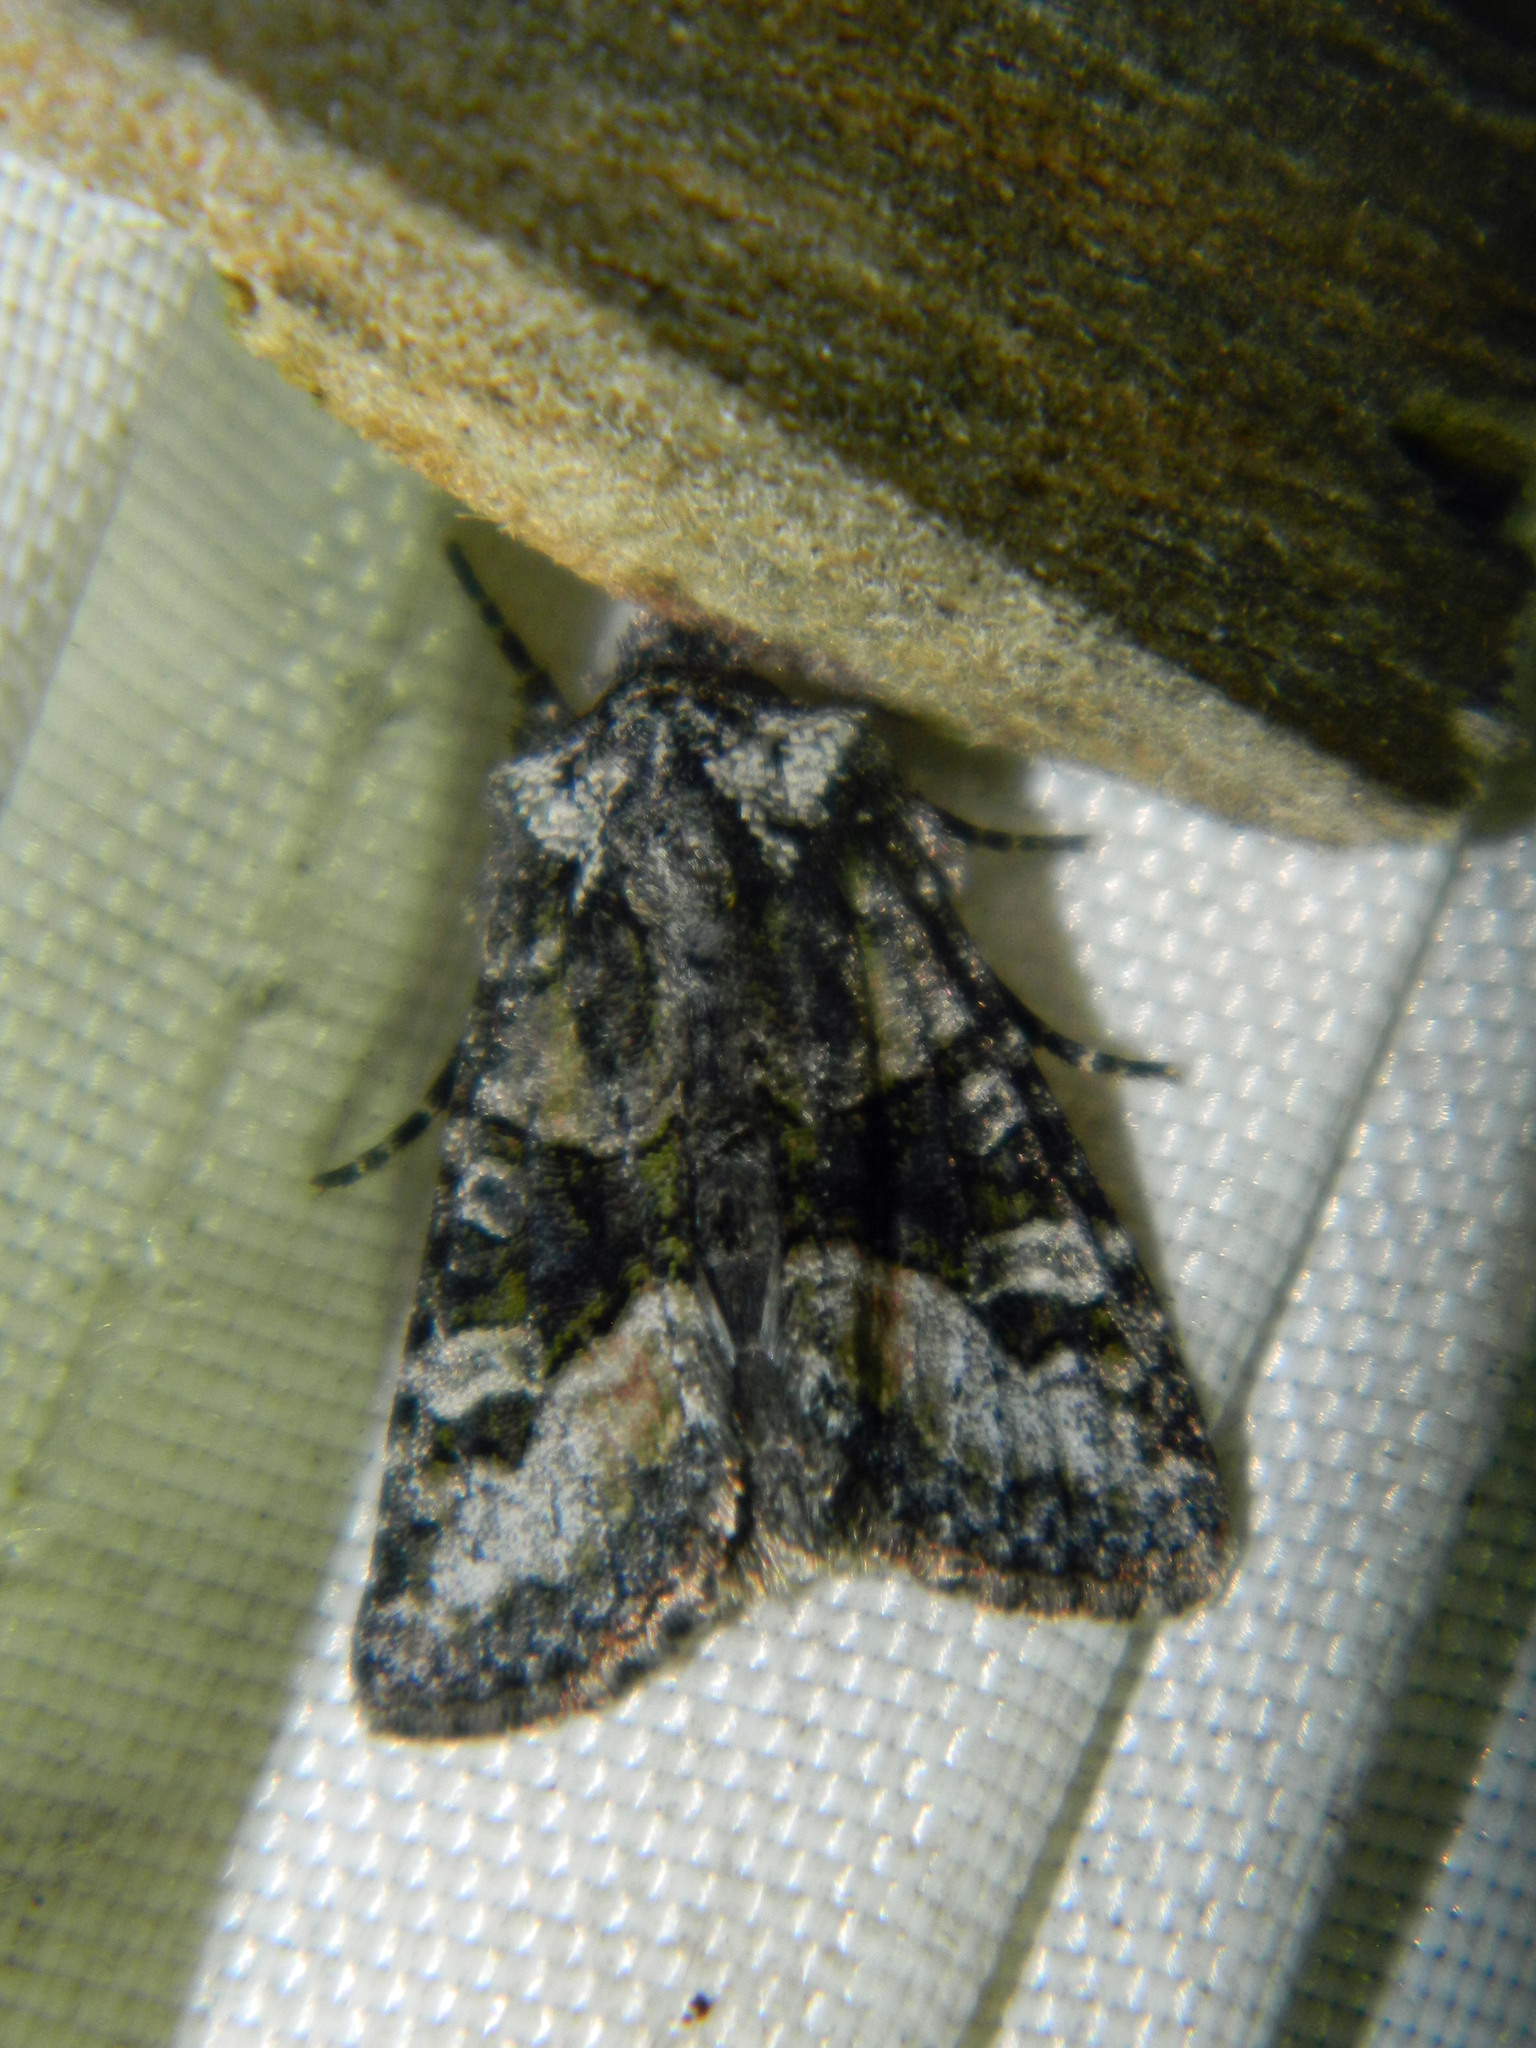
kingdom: Animalia
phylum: Arthropoda
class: Insecta
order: Lepidoptera
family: Noctuidae
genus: Lacinipolia
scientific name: Lacinipolia olivacea
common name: Olive arches moth
